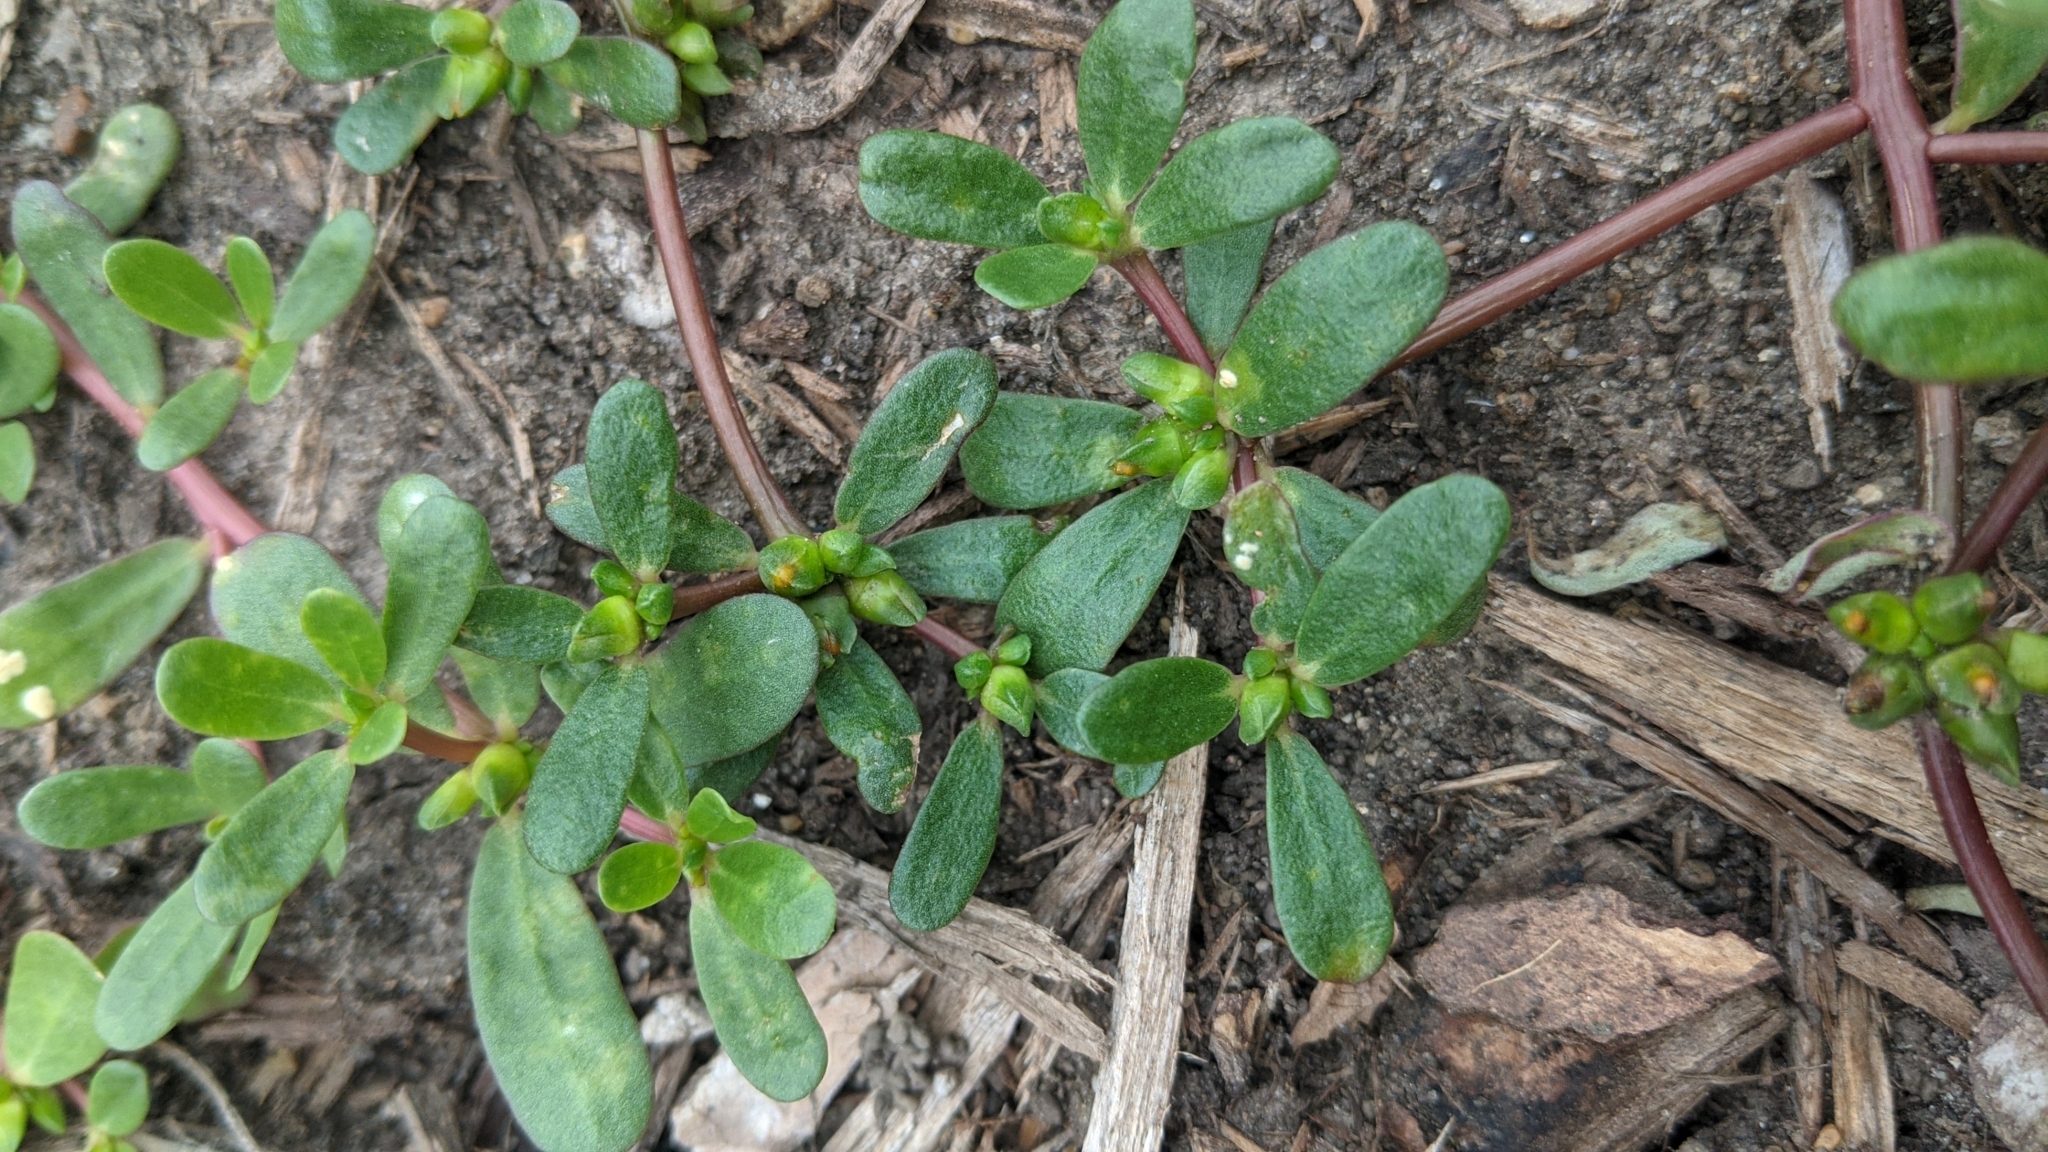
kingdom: Chromista
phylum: Oomycota
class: Peronosporea
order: Albuginales
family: Albuginaceae
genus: Wilsoniana
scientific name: Wilsoniana portulacae
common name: Purslane white rust
